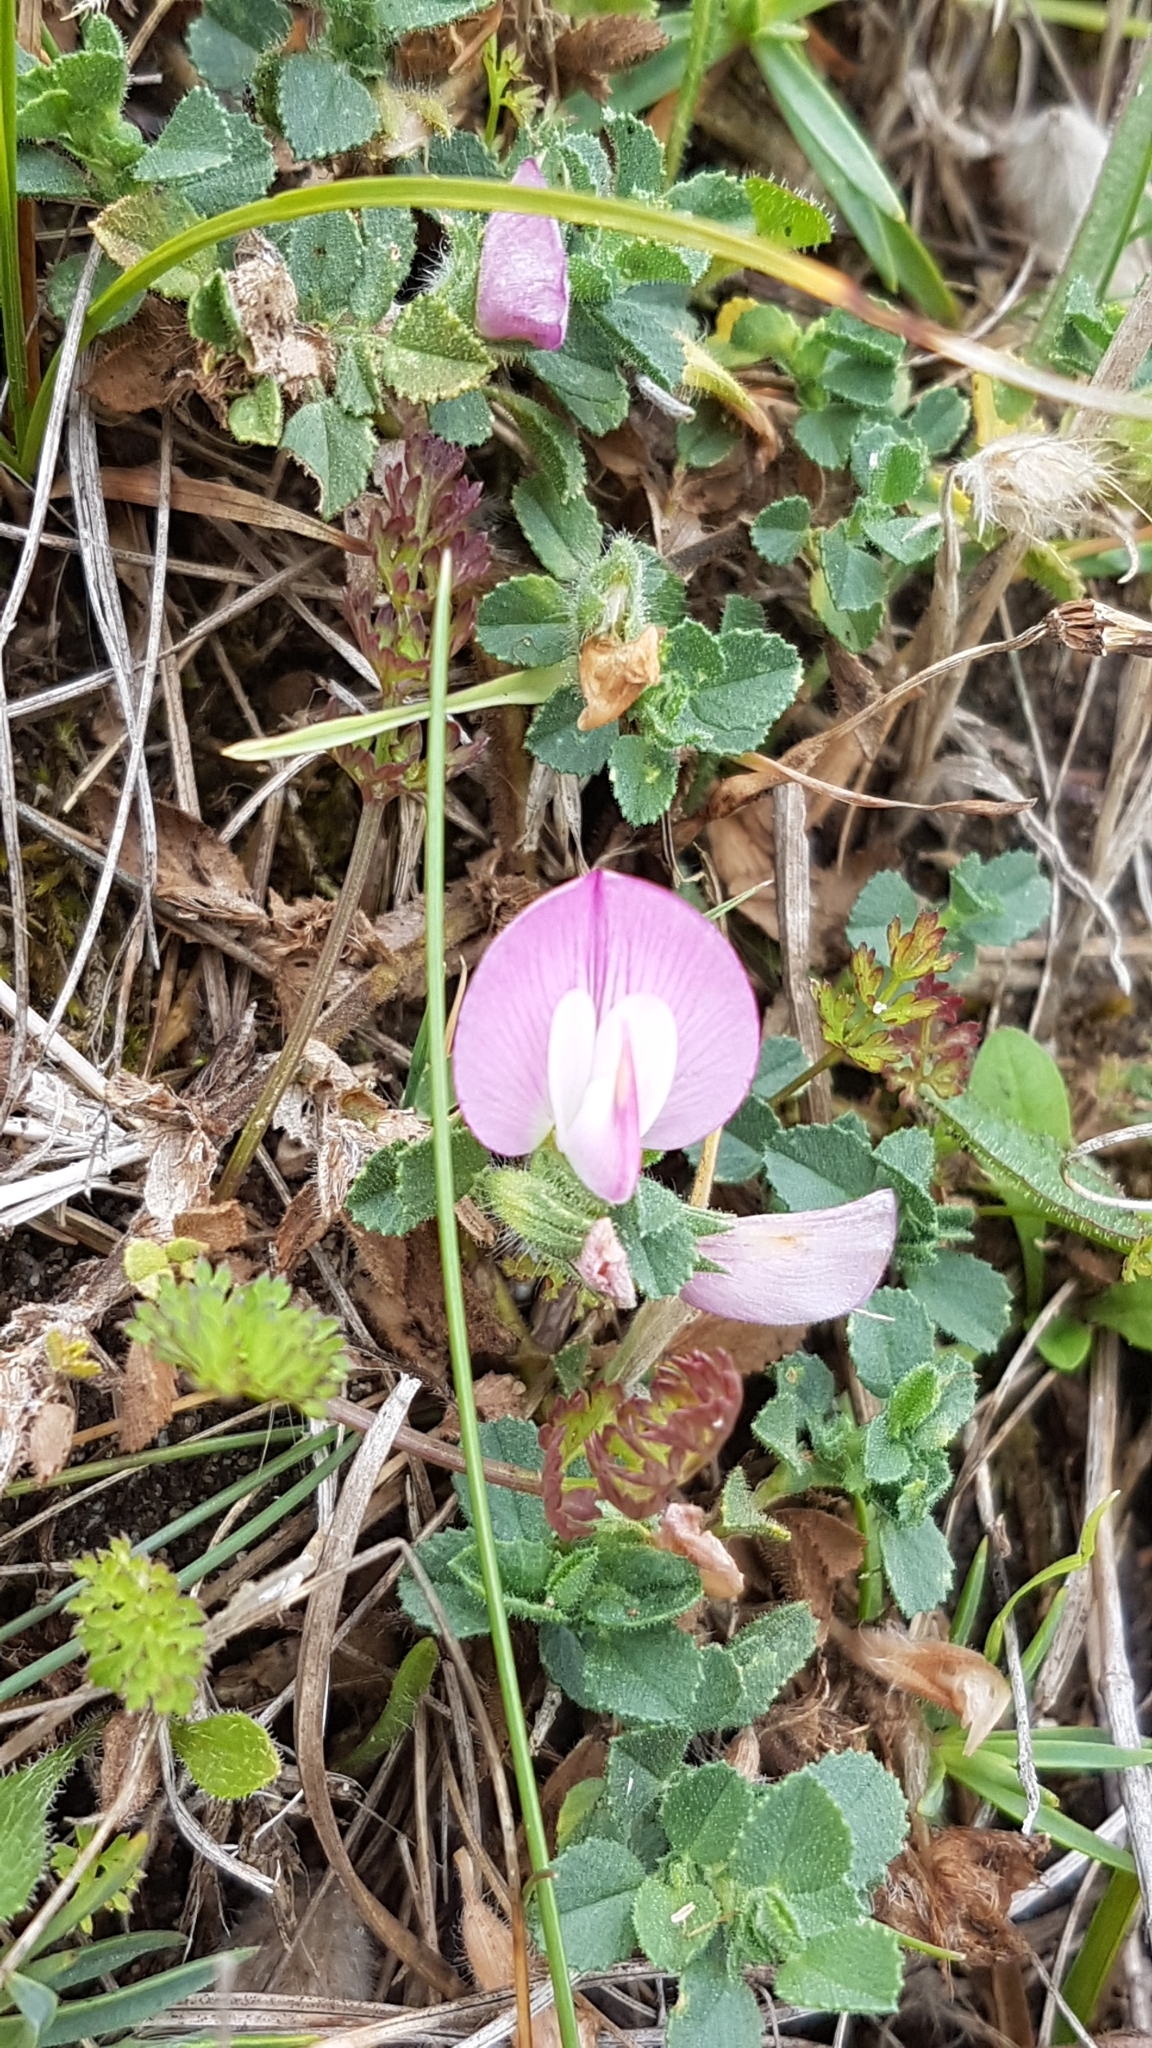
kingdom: Plantae
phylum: Tracheophyta
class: Magnoliopsida
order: Fabales
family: Fabaceae
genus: Ononis
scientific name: Ononis spinosa
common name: Spiny restharrow
